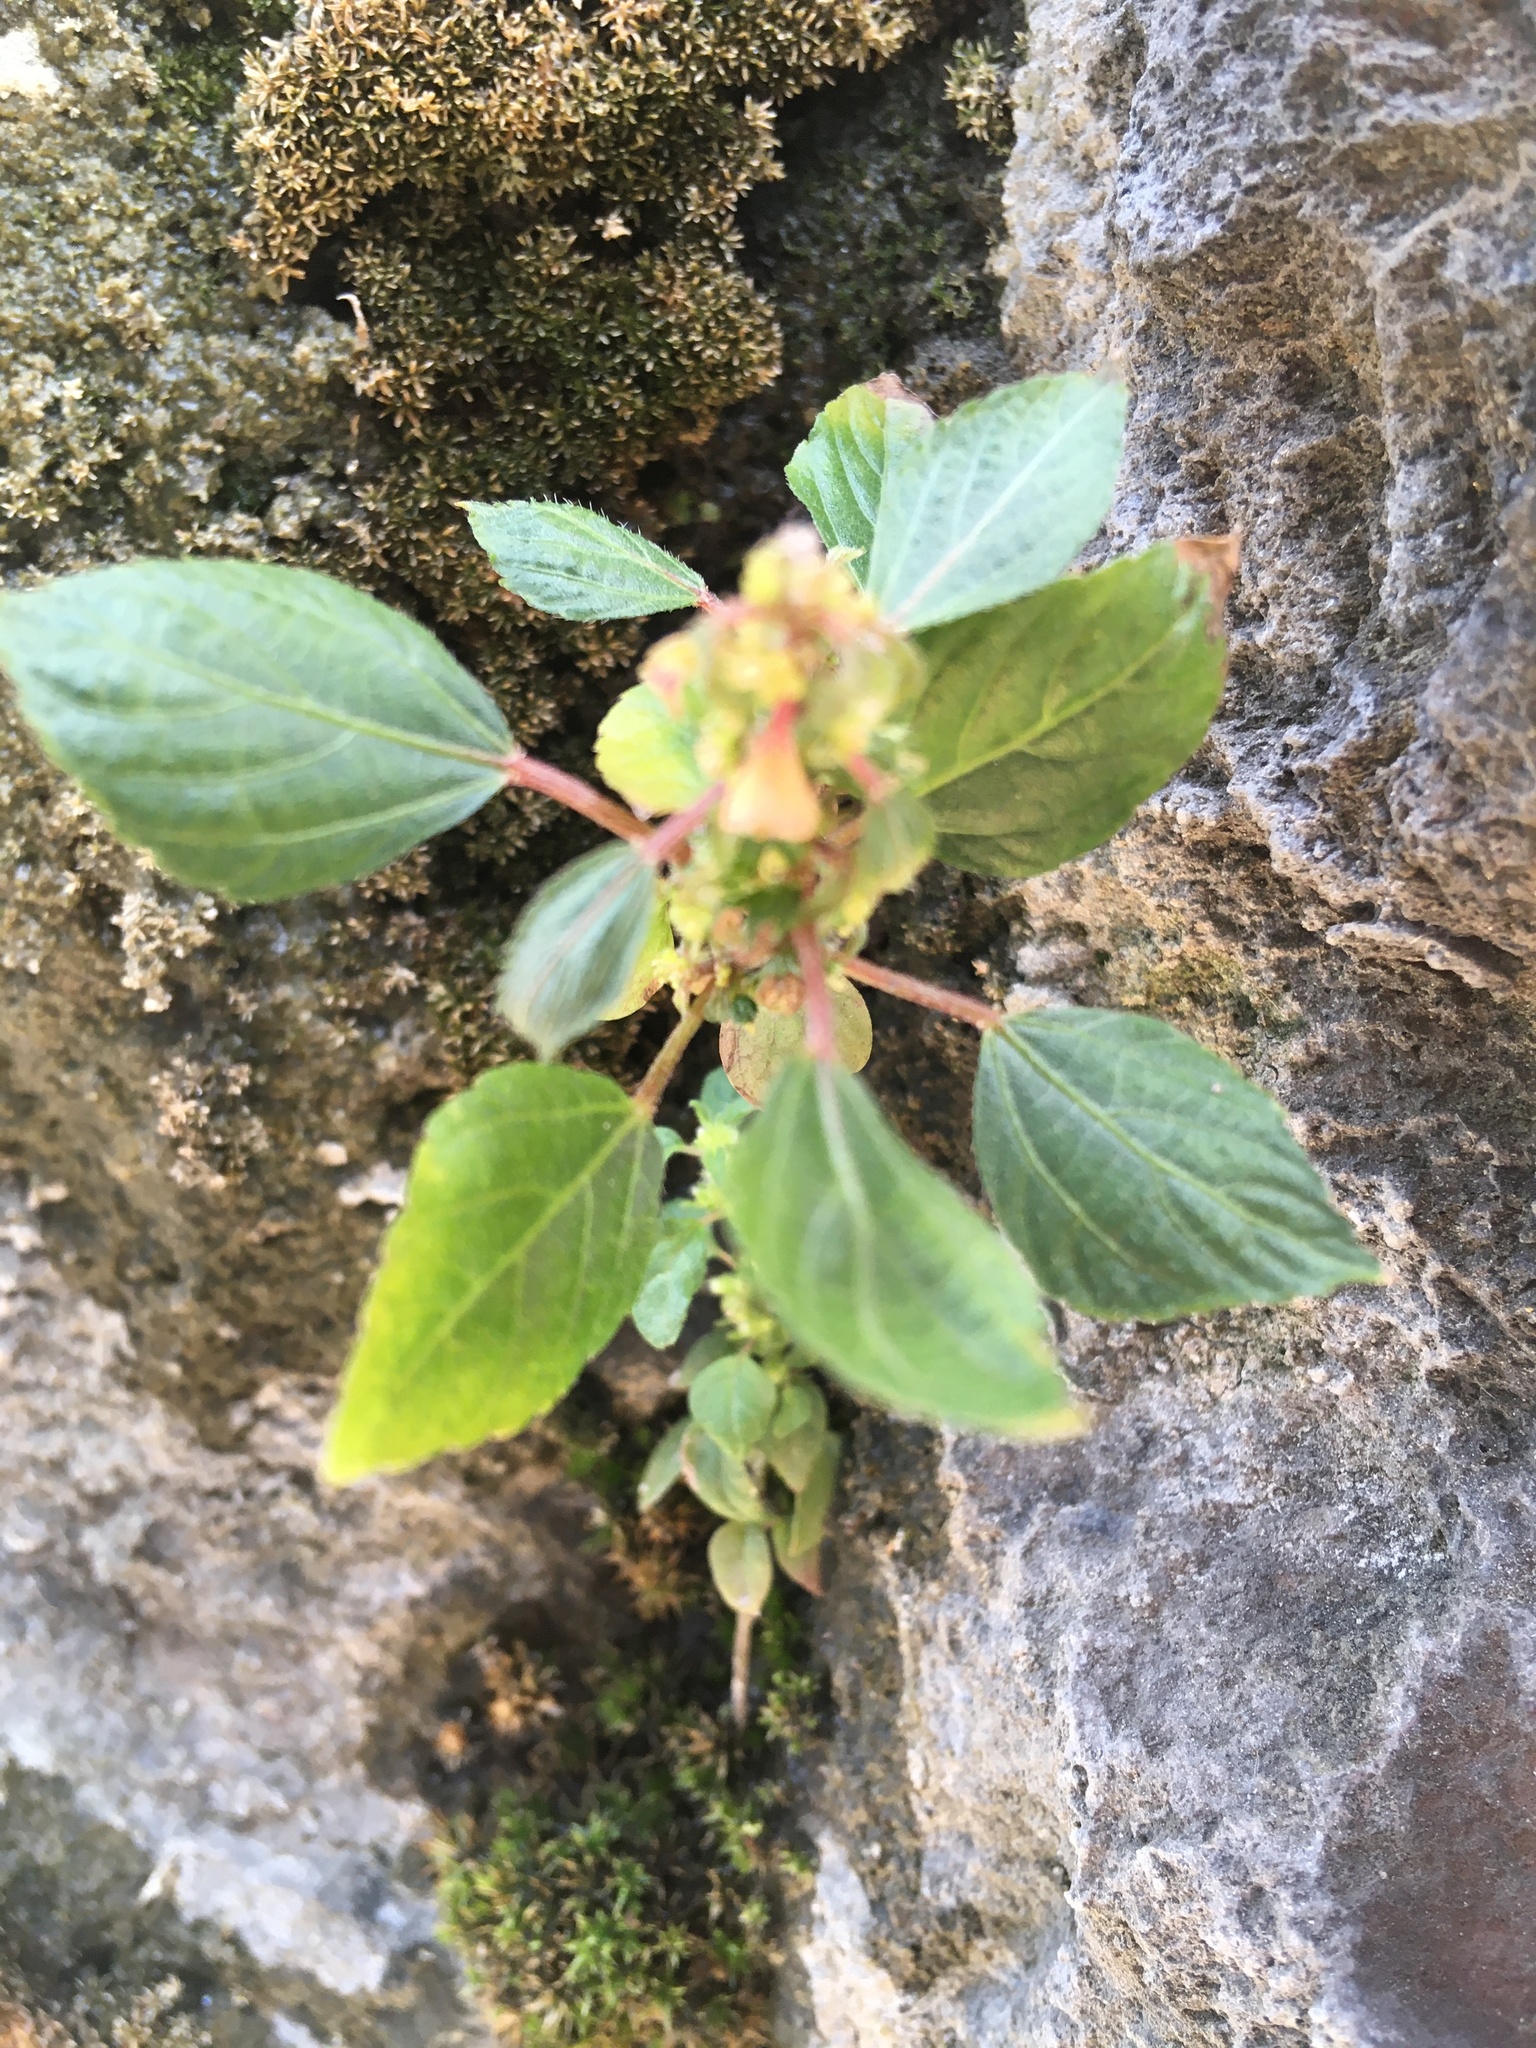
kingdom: Plantae
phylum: Tracheophyta
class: Magnoliopsida
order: Malpighiales
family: Euphorbiaceae
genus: Acalypha
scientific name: Acalypha australis
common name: Asian copperleaf
